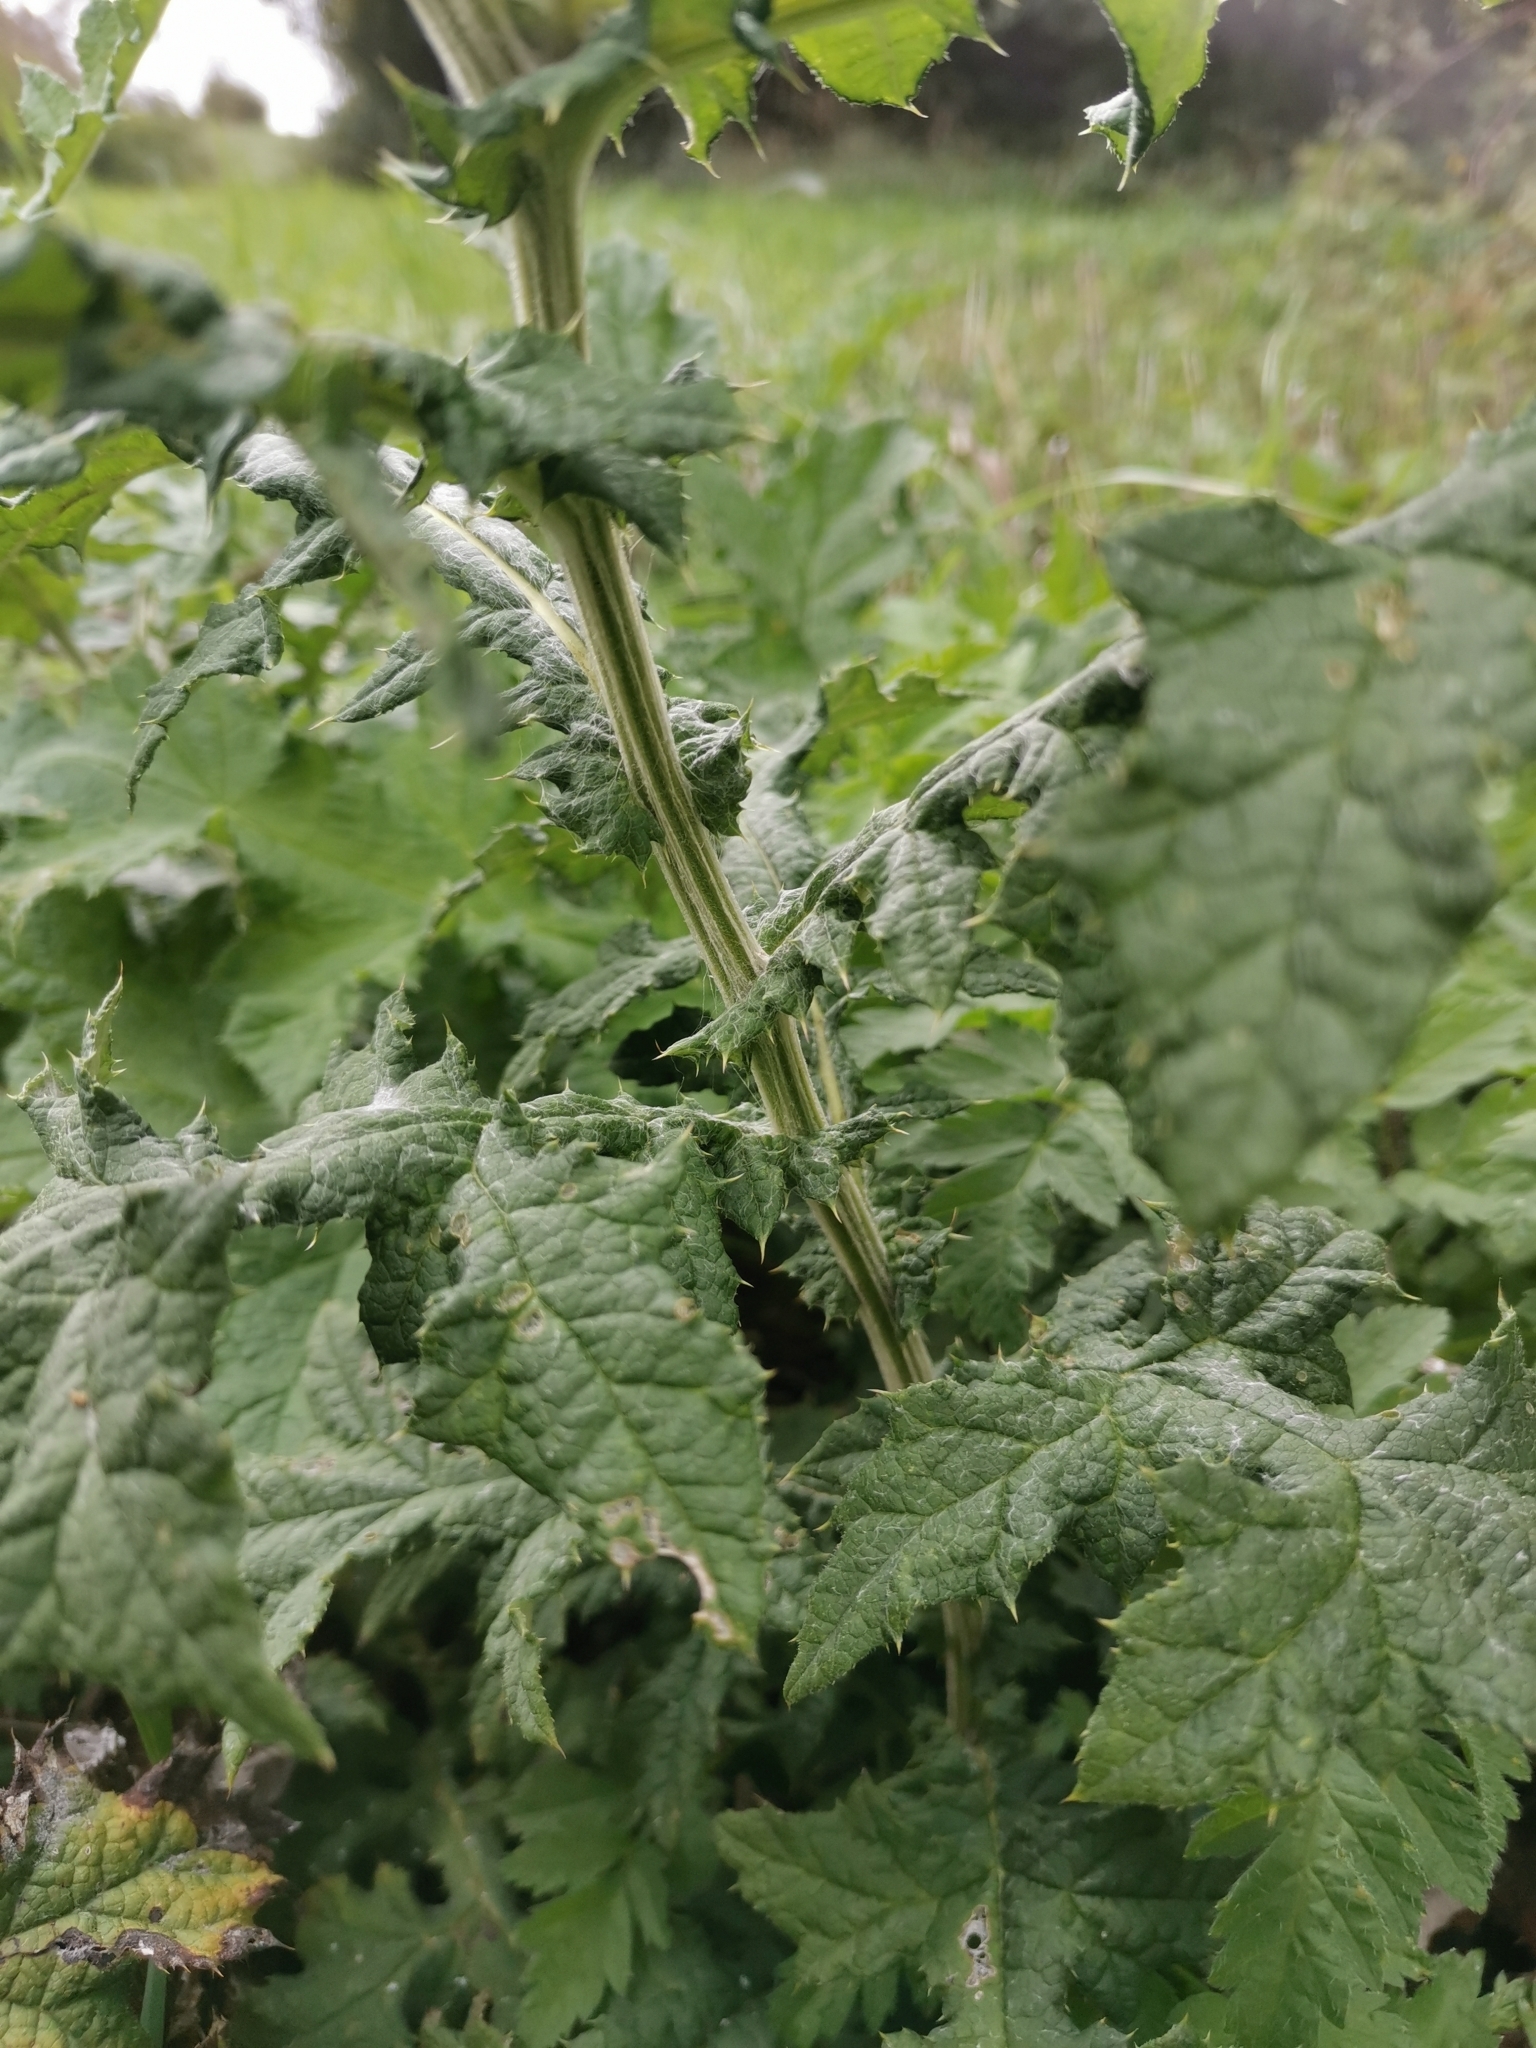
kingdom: Plantae
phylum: Tracheophyta
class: Magnoliopsida
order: Asterales
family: Asteraceae
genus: Echinops
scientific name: Echinops exaltatus
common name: Globe-thistle
